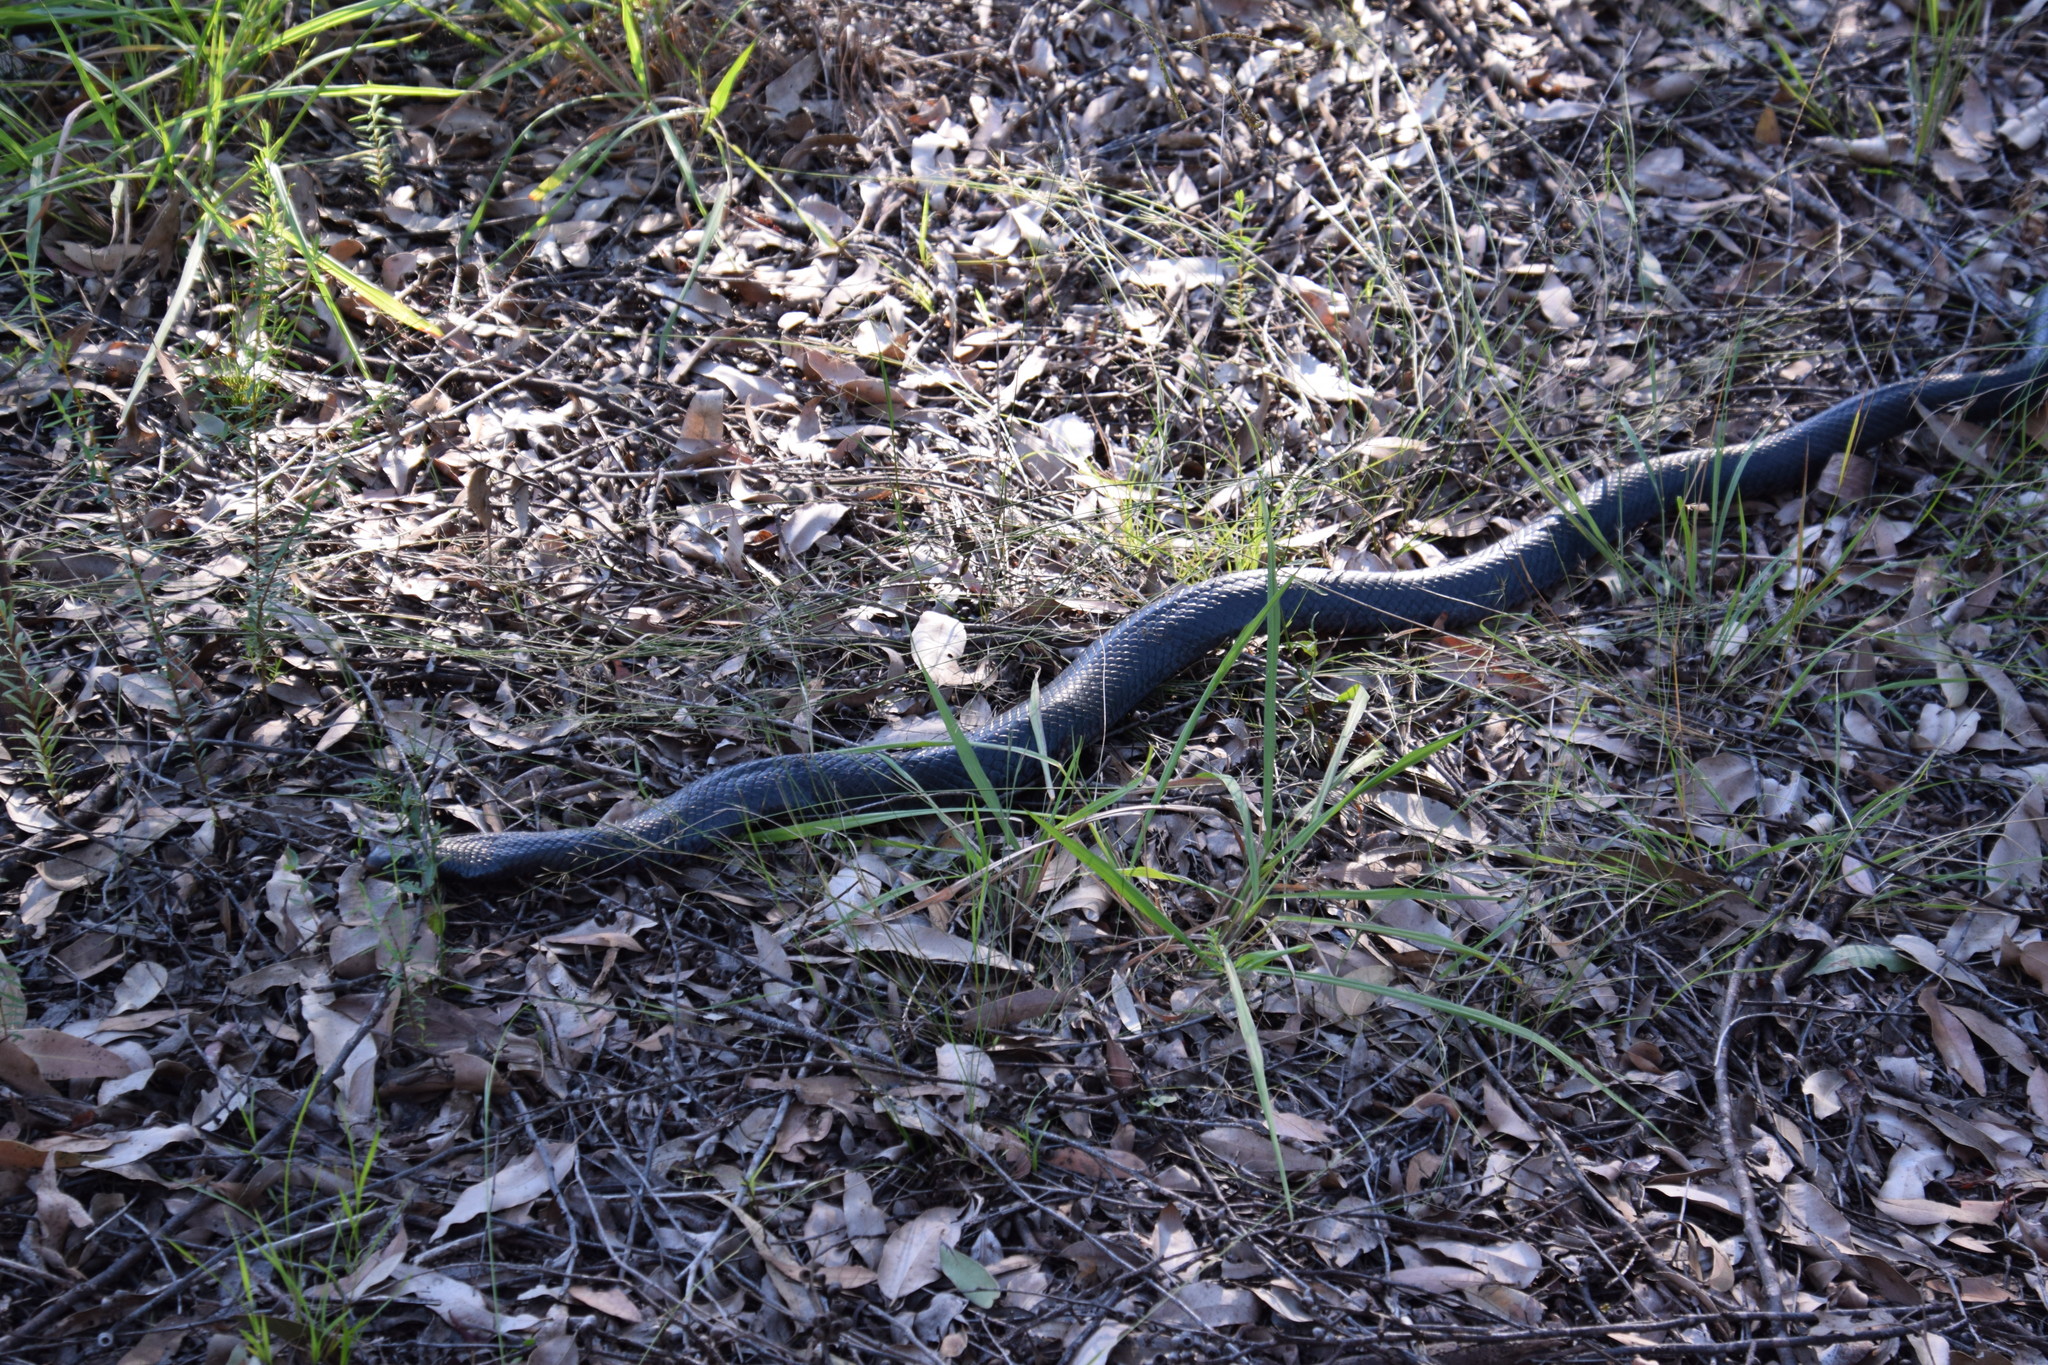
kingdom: Animalia
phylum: Chordata
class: Squamata
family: Elapidae
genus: Pseudechis
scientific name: Pseudechis porphyriacus
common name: Australian black snake
